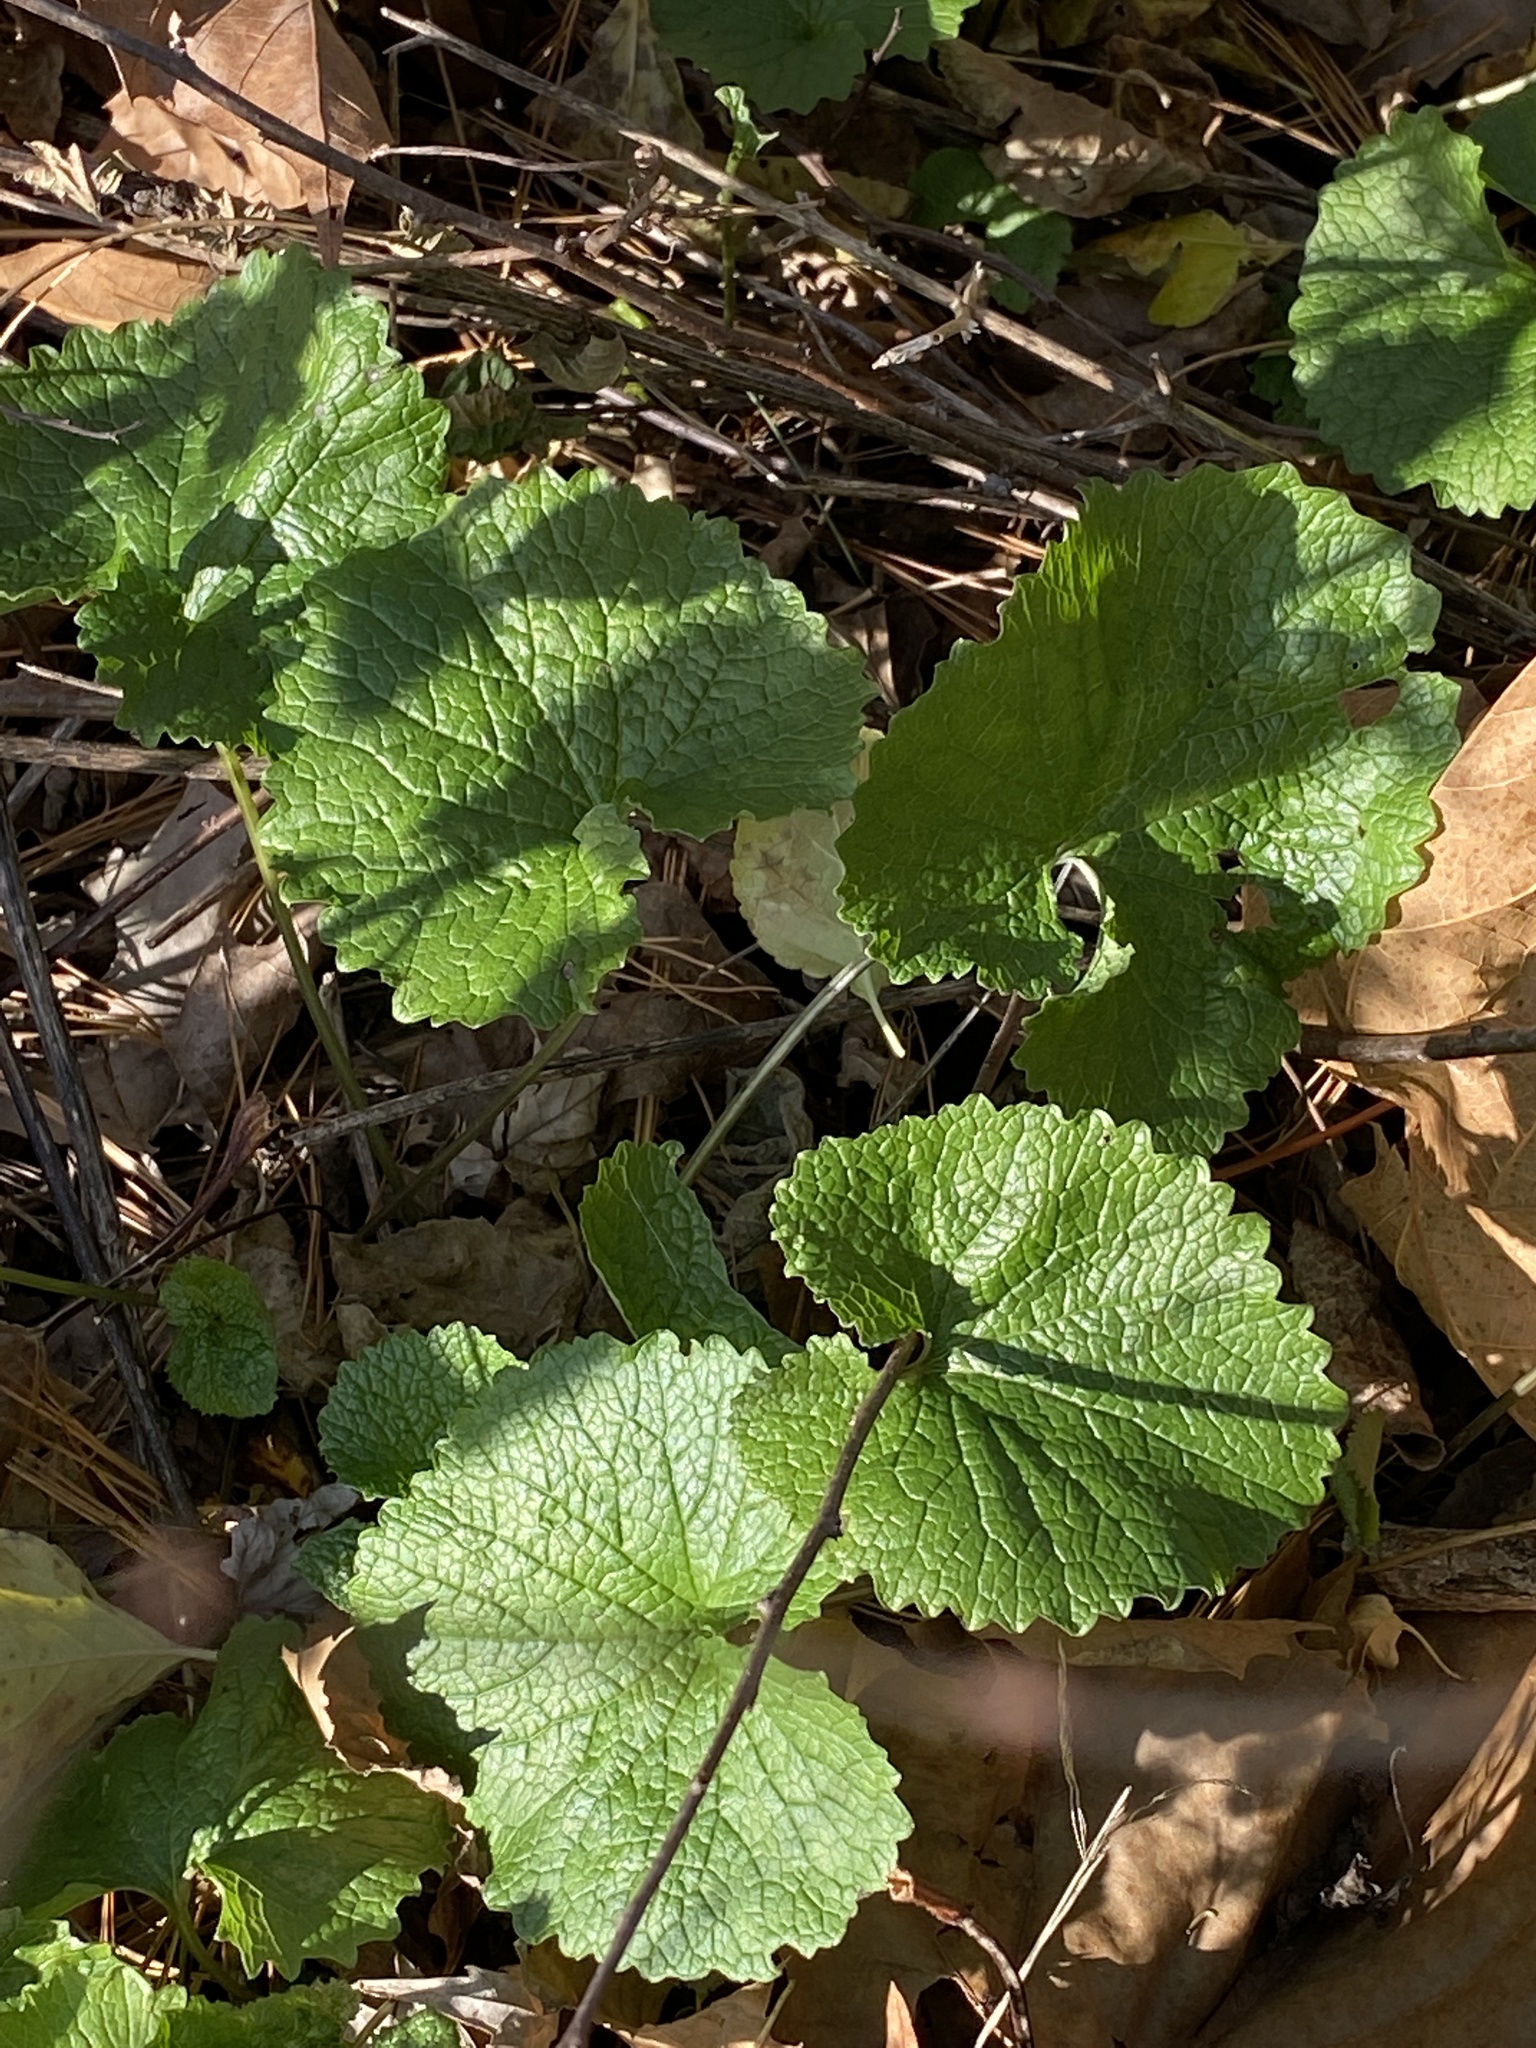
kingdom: Plantae
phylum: Tracheophyta
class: Magnoliopsida
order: Brassicales
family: Brassicaceae
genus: Alliaria
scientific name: Alliaria petiolata
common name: Garlic mustard
